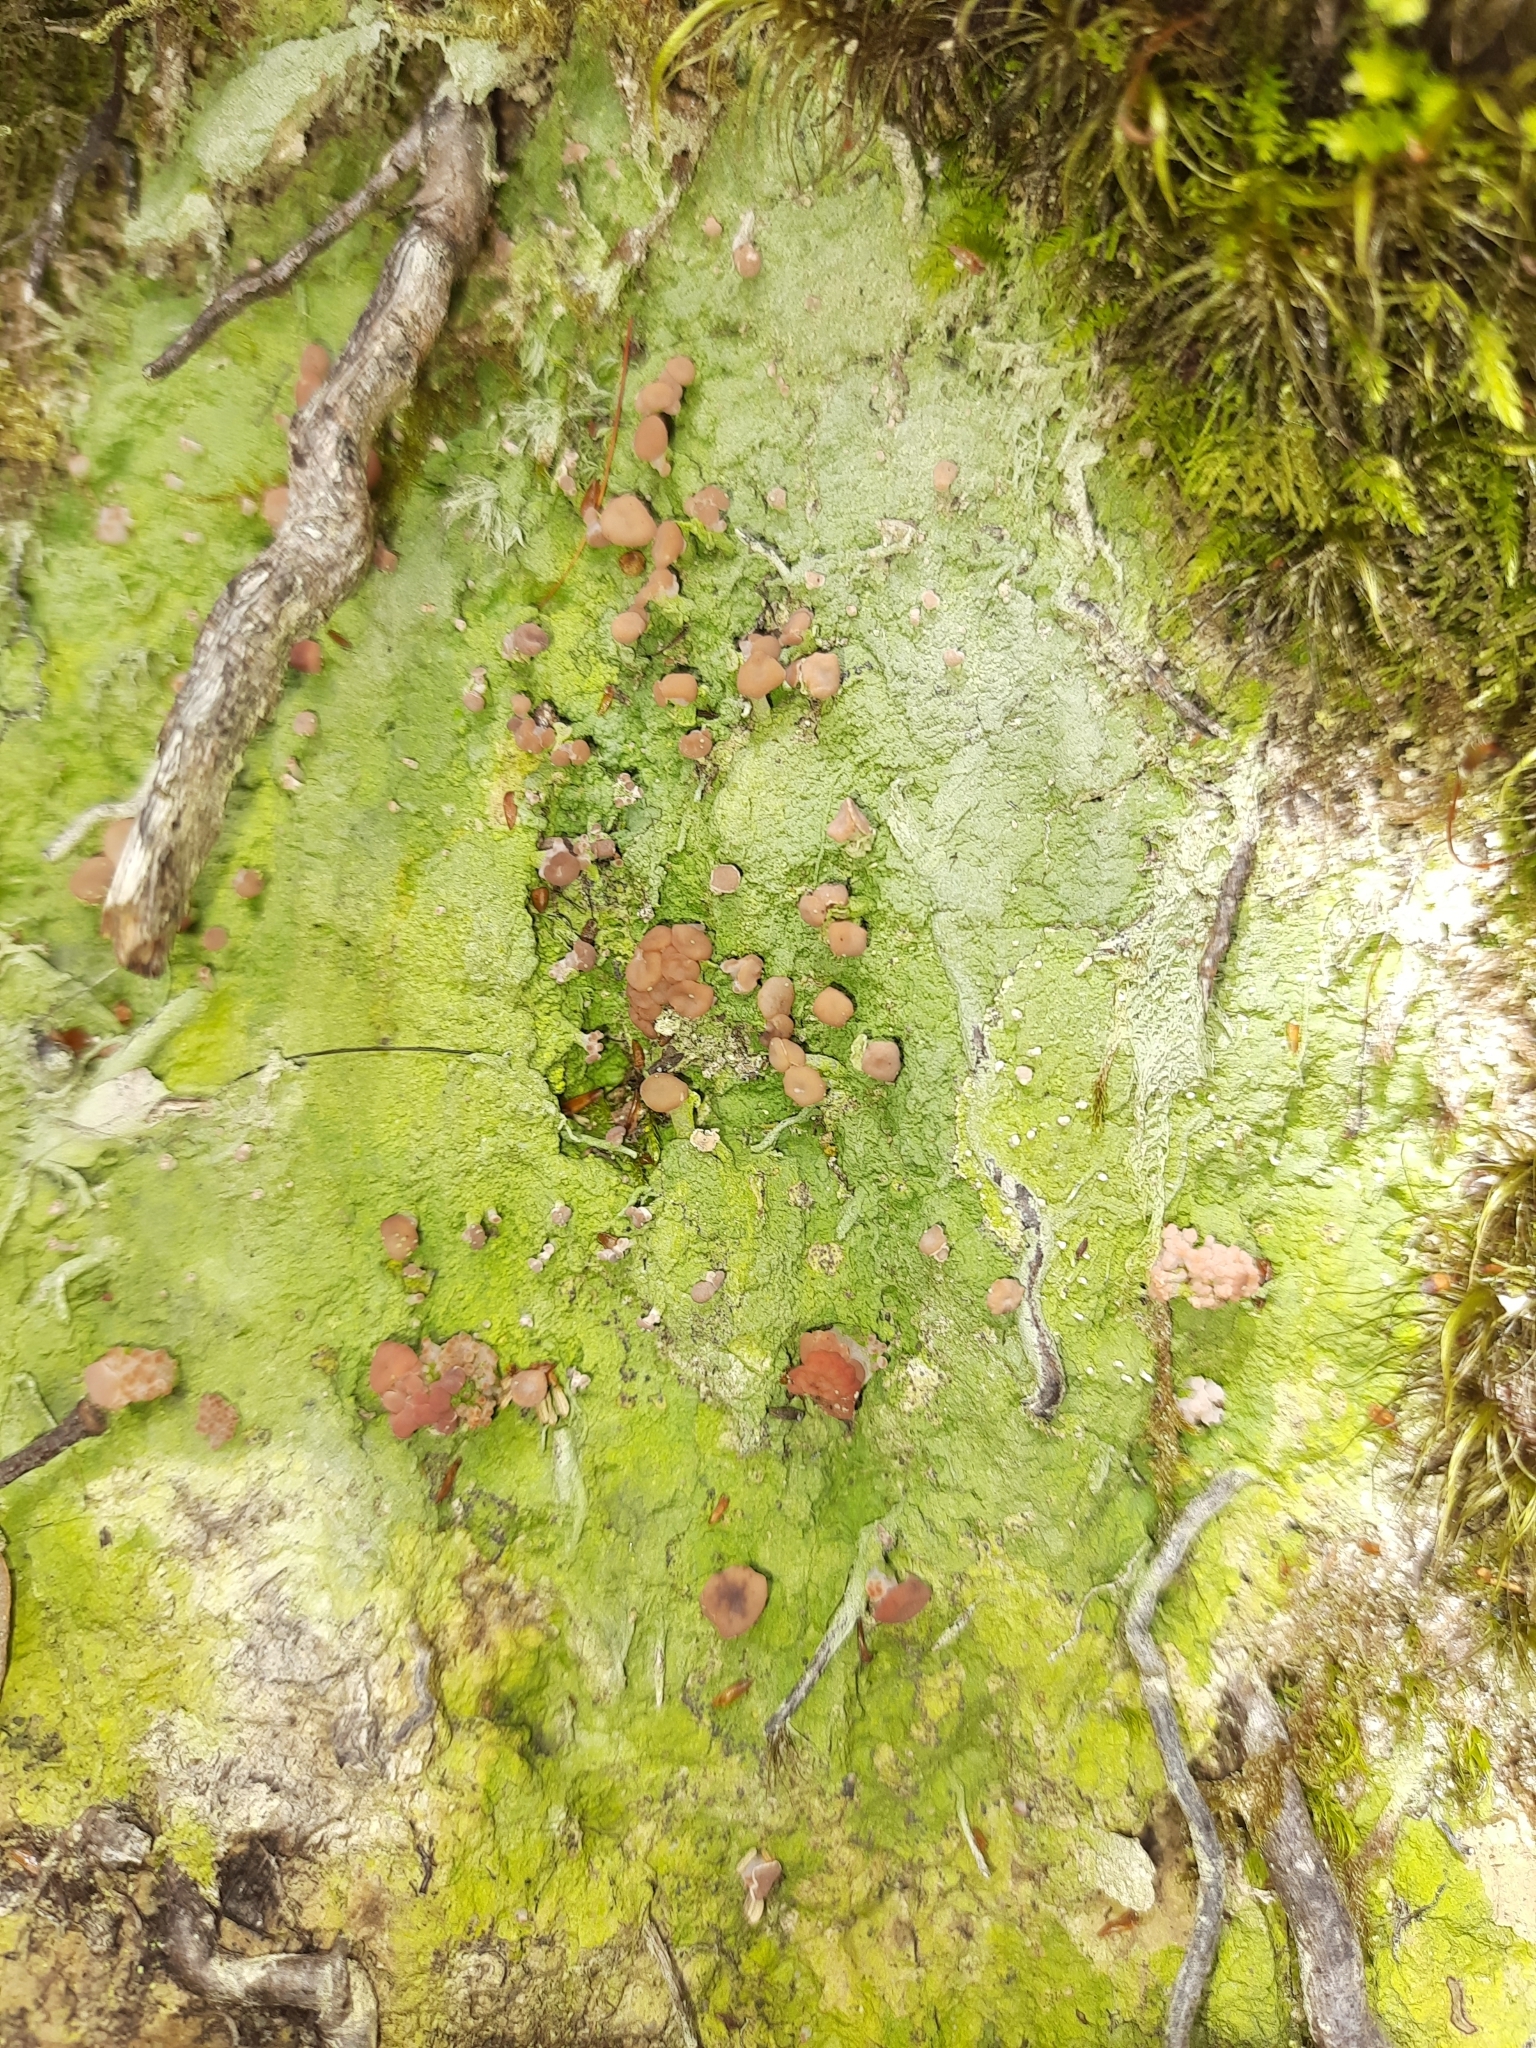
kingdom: Fungi
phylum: Ascomycota
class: Lecanoromycetes
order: Baeomycetales
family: Baeomycetaceae
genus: Baeomyces
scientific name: Baeomyces heteromorphus
